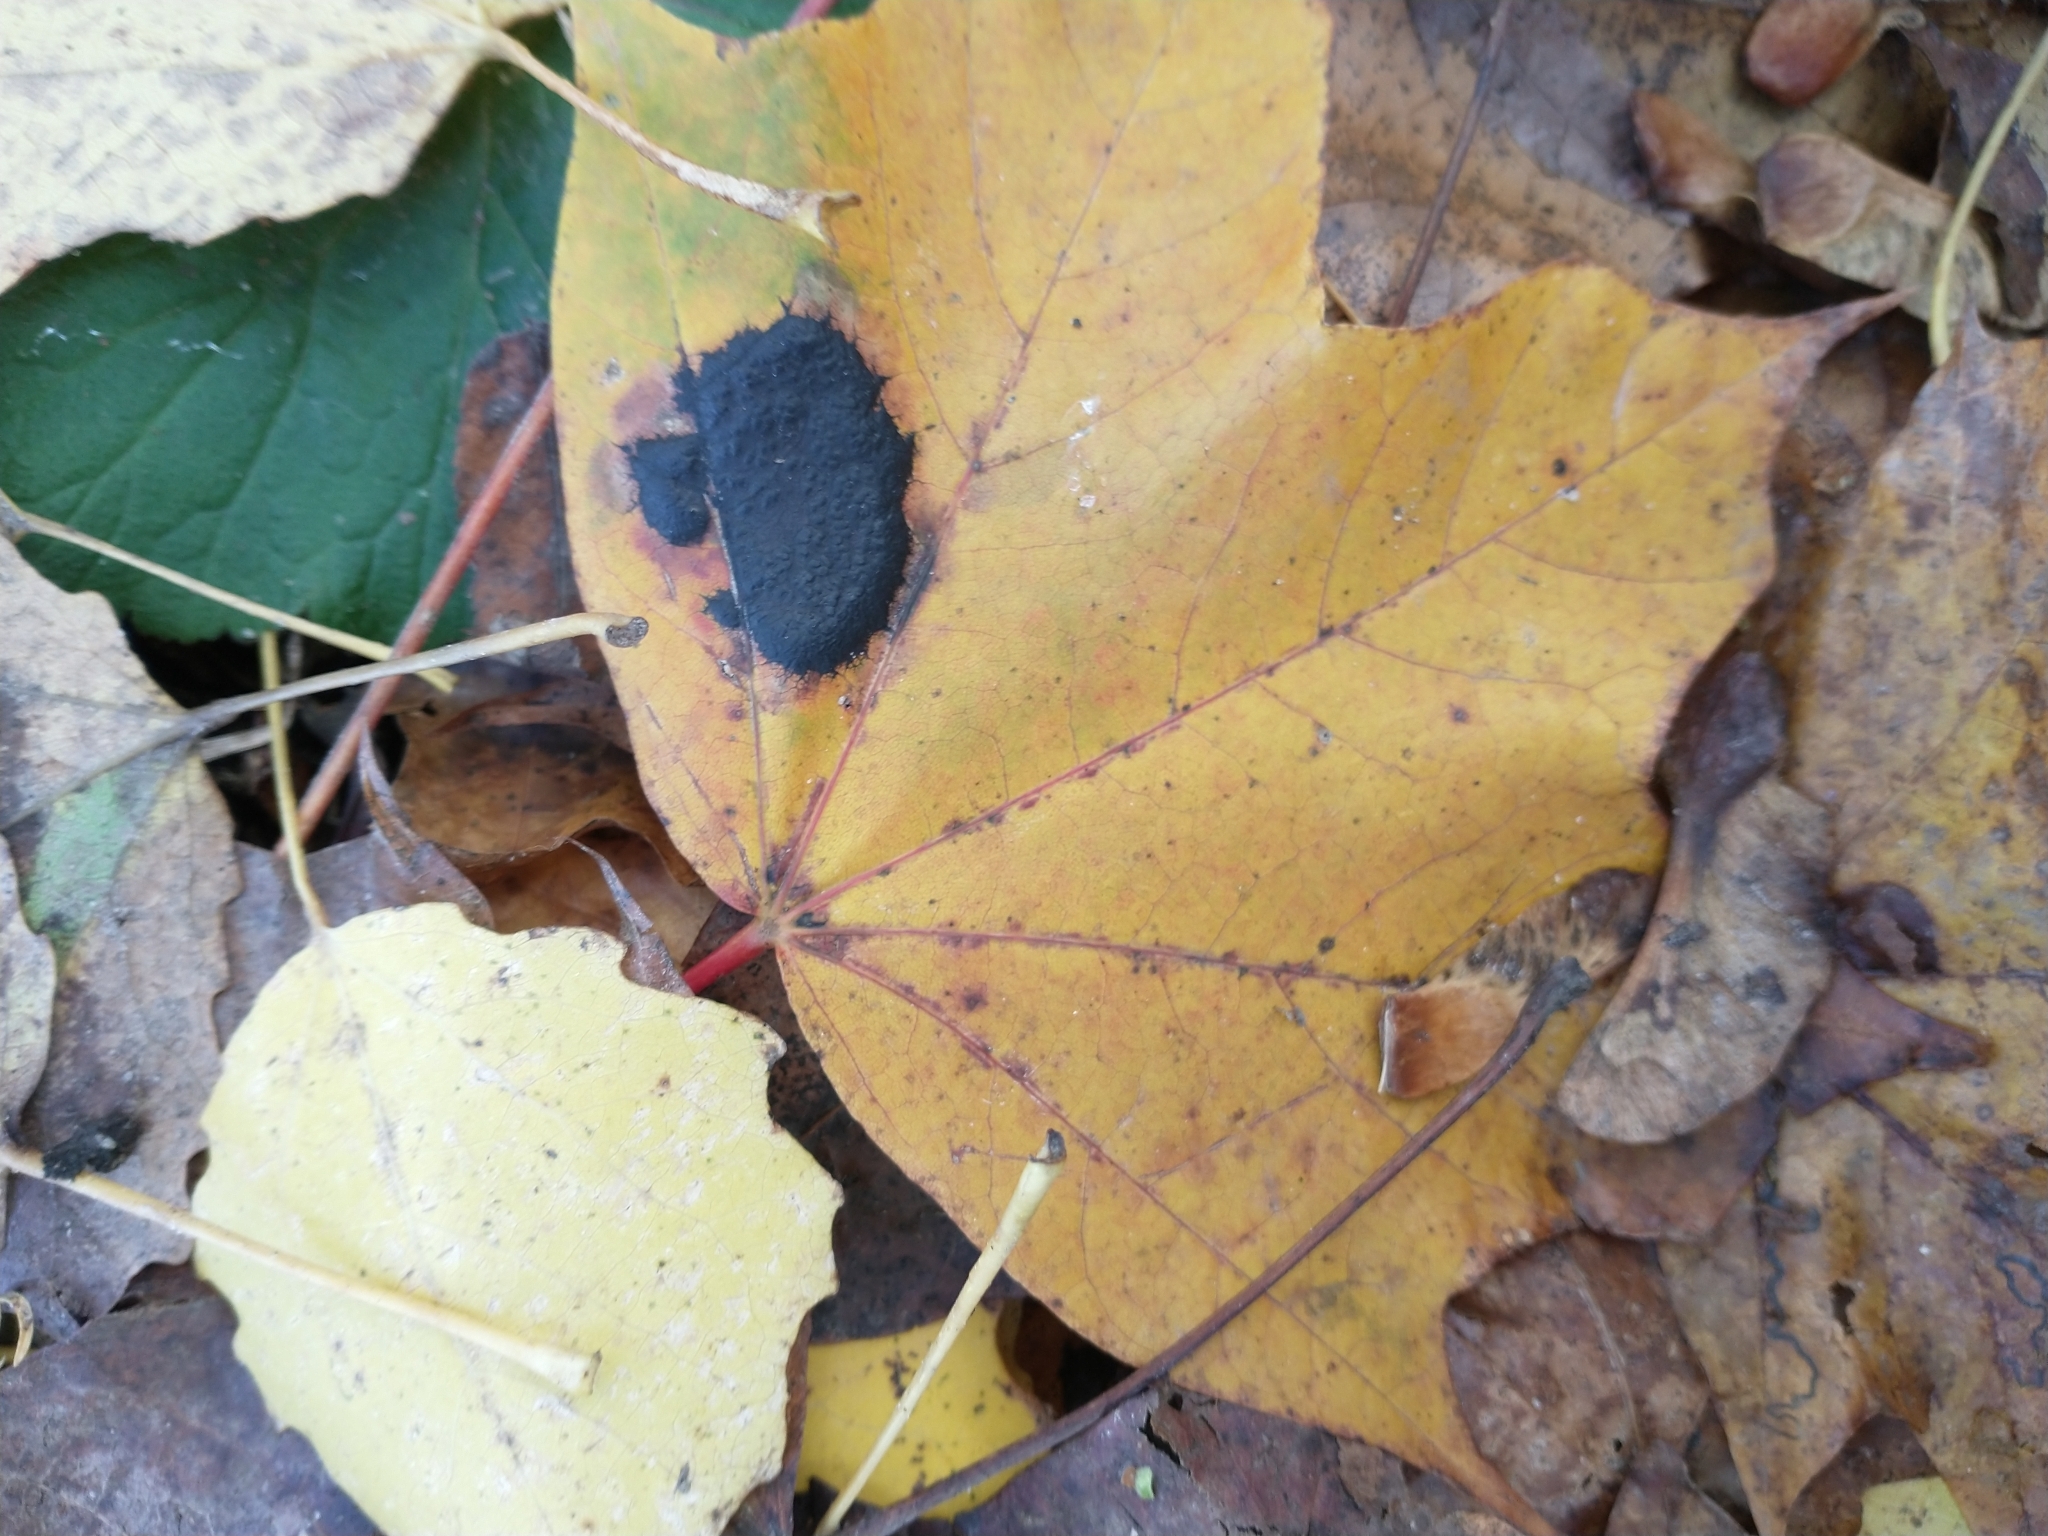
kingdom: Fungi
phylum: Ascomycota
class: Leotiomycetes
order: Rhytismatales
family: Rhytismataceae
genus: Rhytisma
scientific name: Rhytisma acerinum
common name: European tar spot
